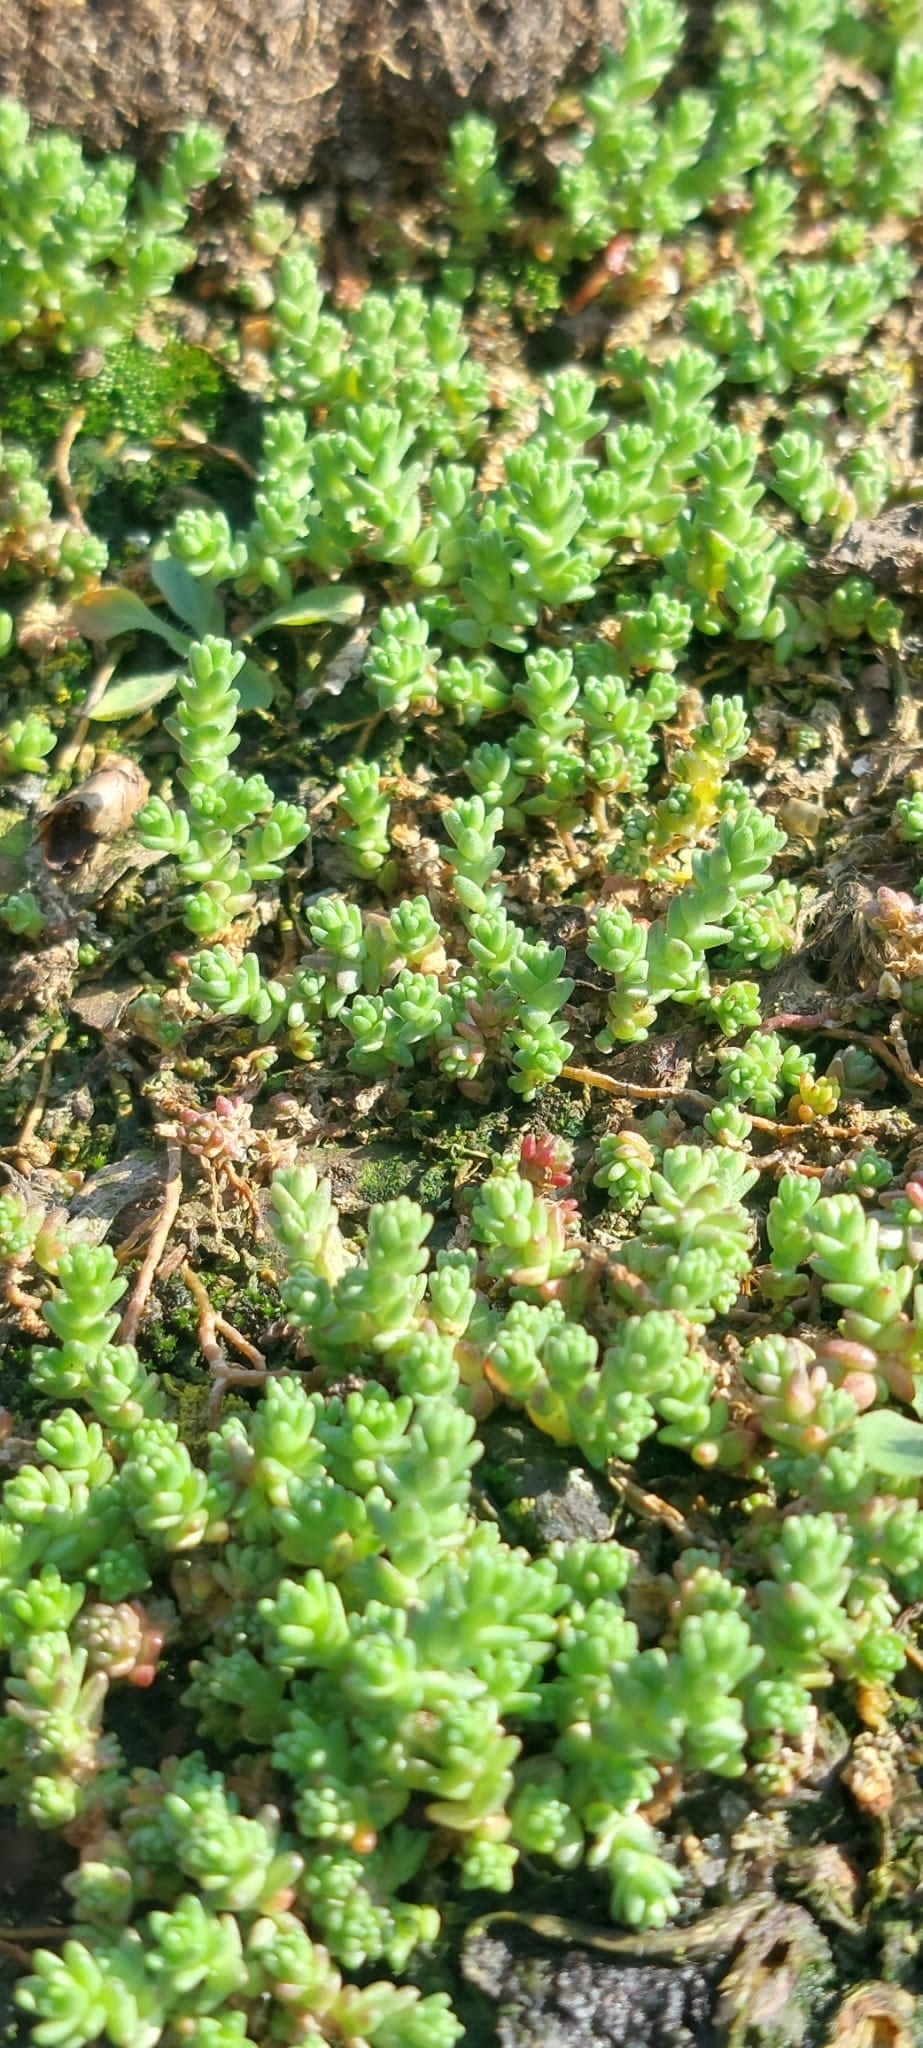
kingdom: Plantae
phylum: Tracheophyta
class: Magnoliopsida
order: Saxifragales
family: Crassulaceae
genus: Sedum
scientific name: Sedum acre
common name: Biting stonecrop
